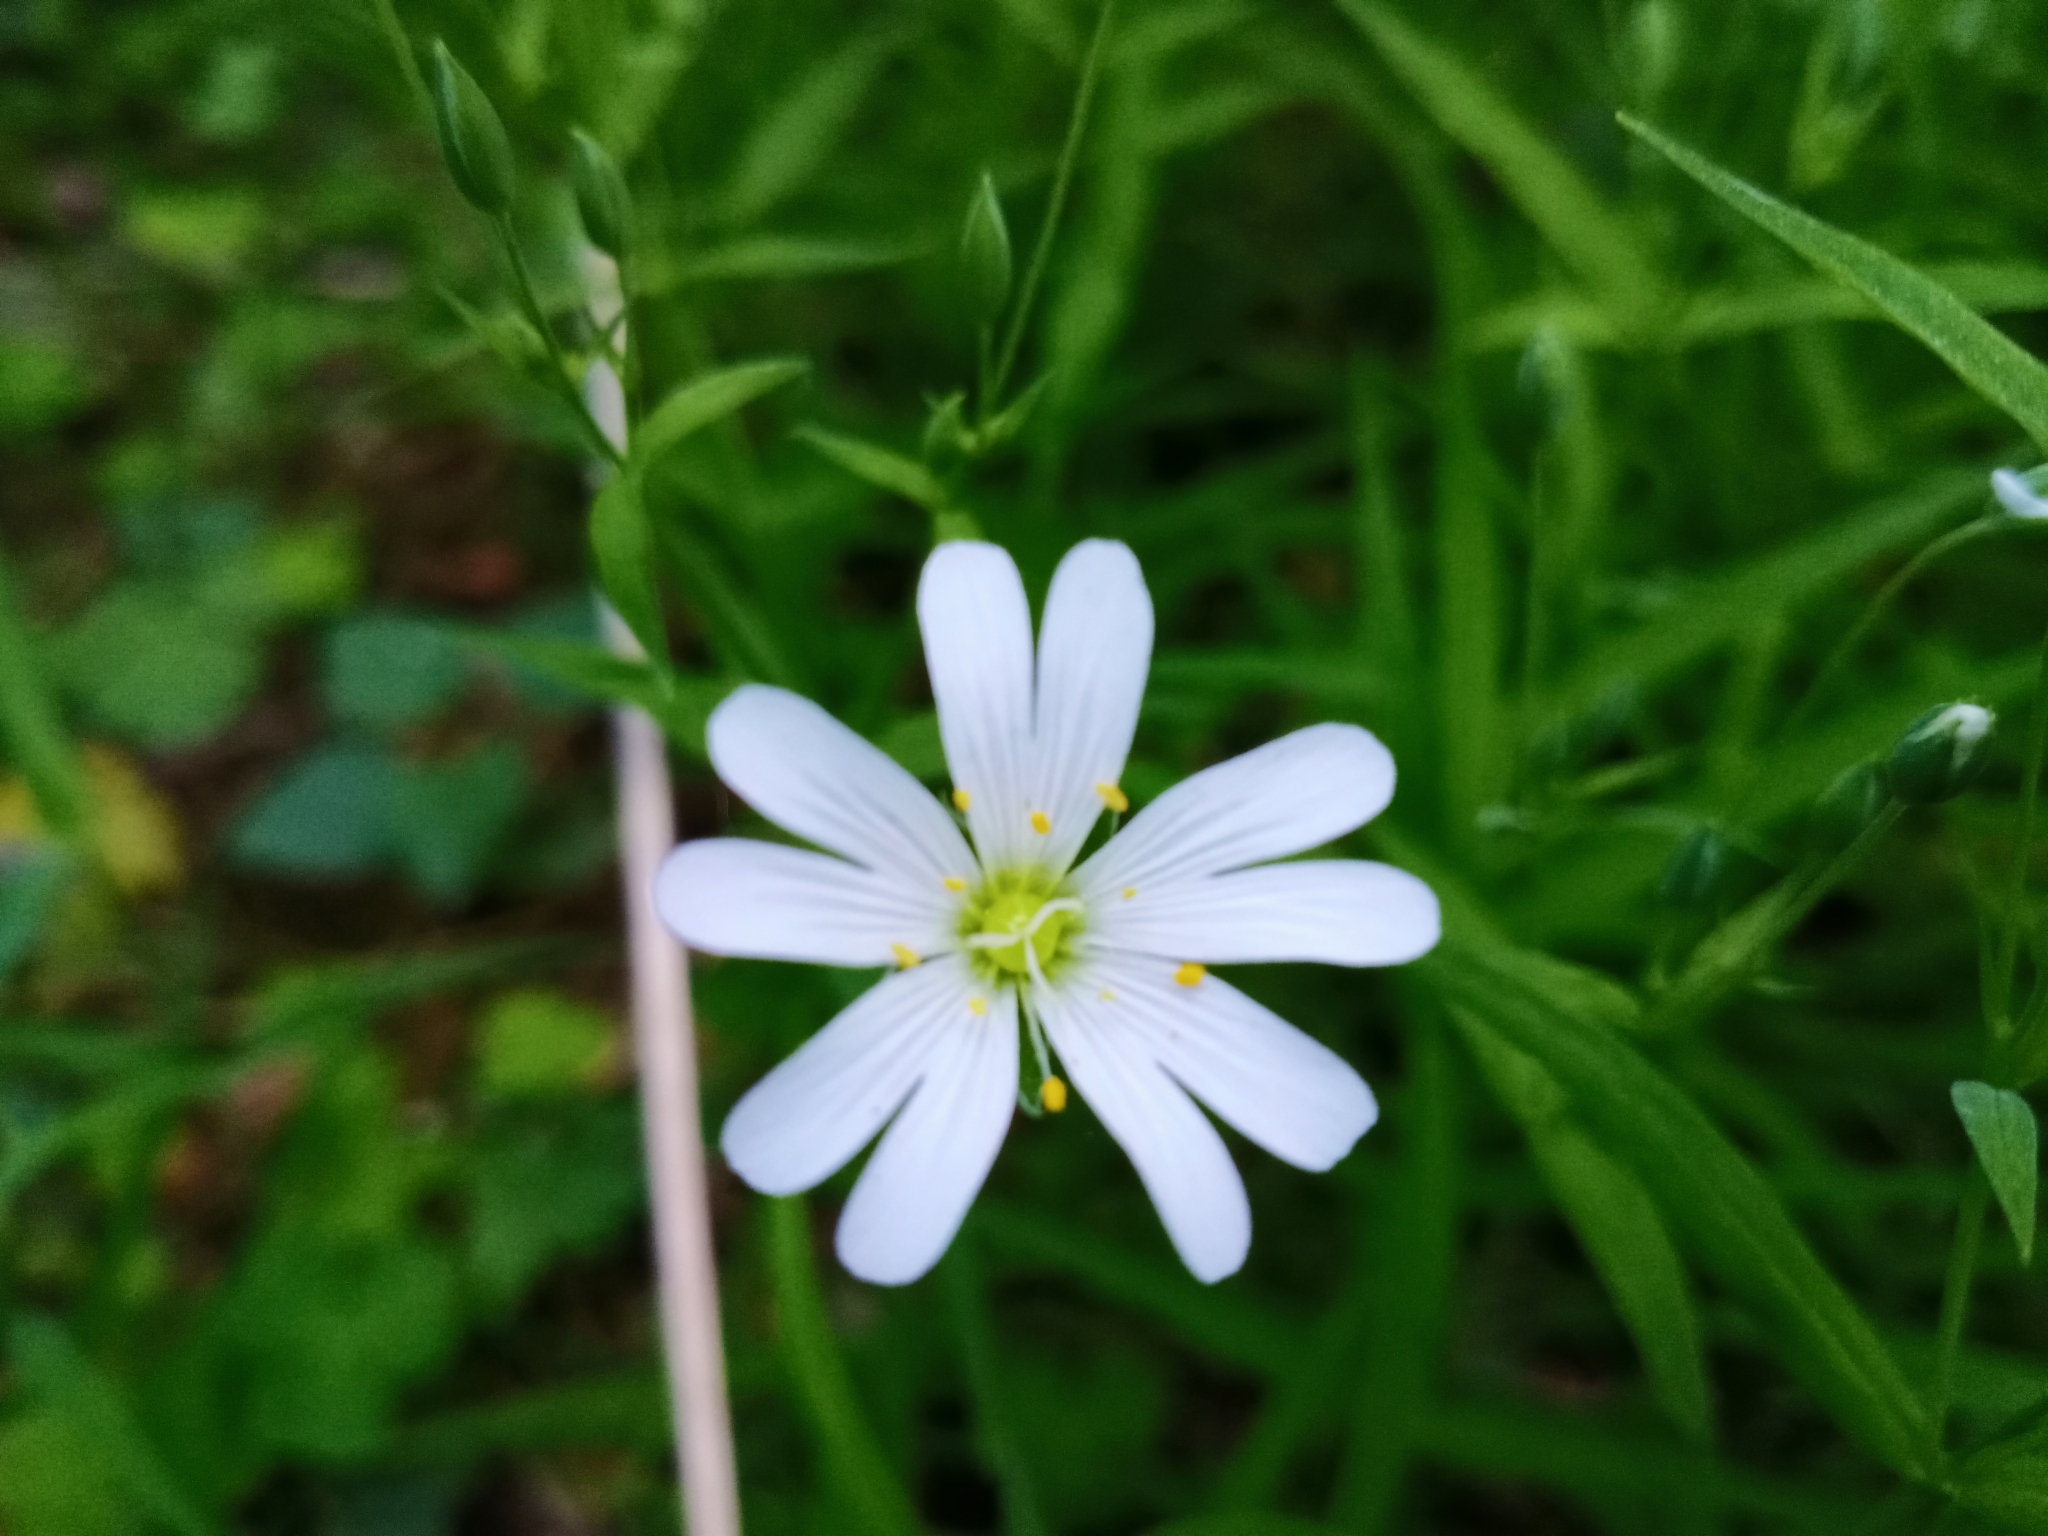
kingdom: Plantae
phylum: Tracheophyta
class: Magnoliopsida
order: Caryophyllales
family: Caryophyllaceae
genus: Rabelera
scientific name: Rabelera holostea
